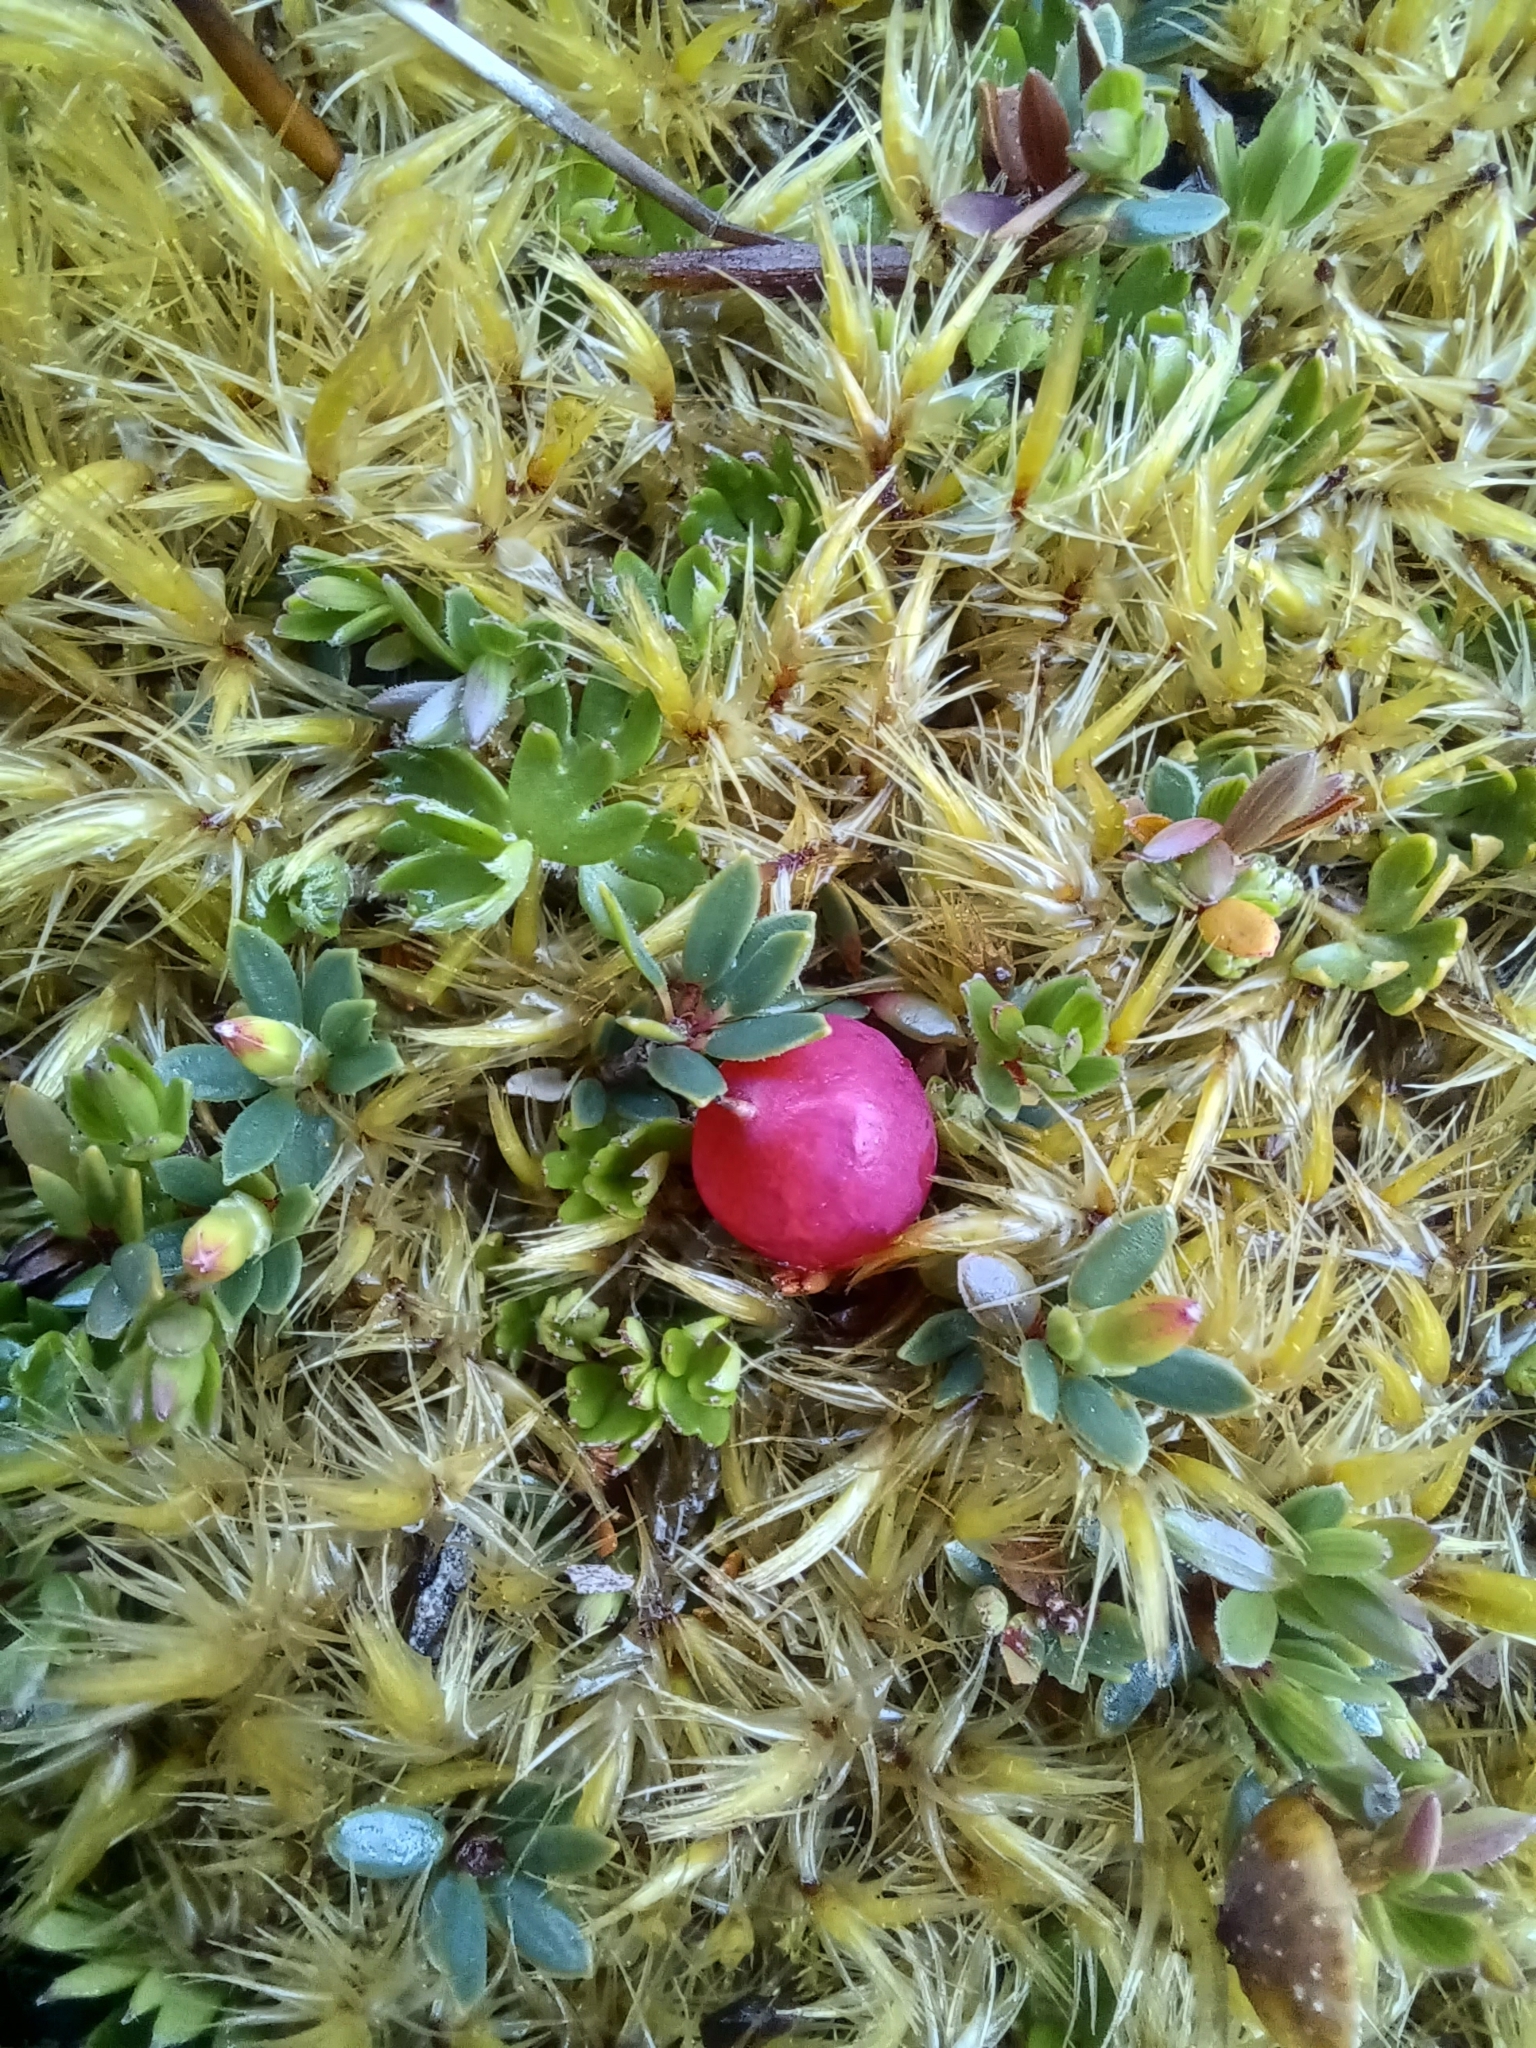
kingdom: Plantae
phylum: Tracheophyta
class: Magnoliopsida
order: Ericales
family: Ericaceae
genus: Pentachondra
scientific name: Pentachondra pumila
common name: Carpet-heath
